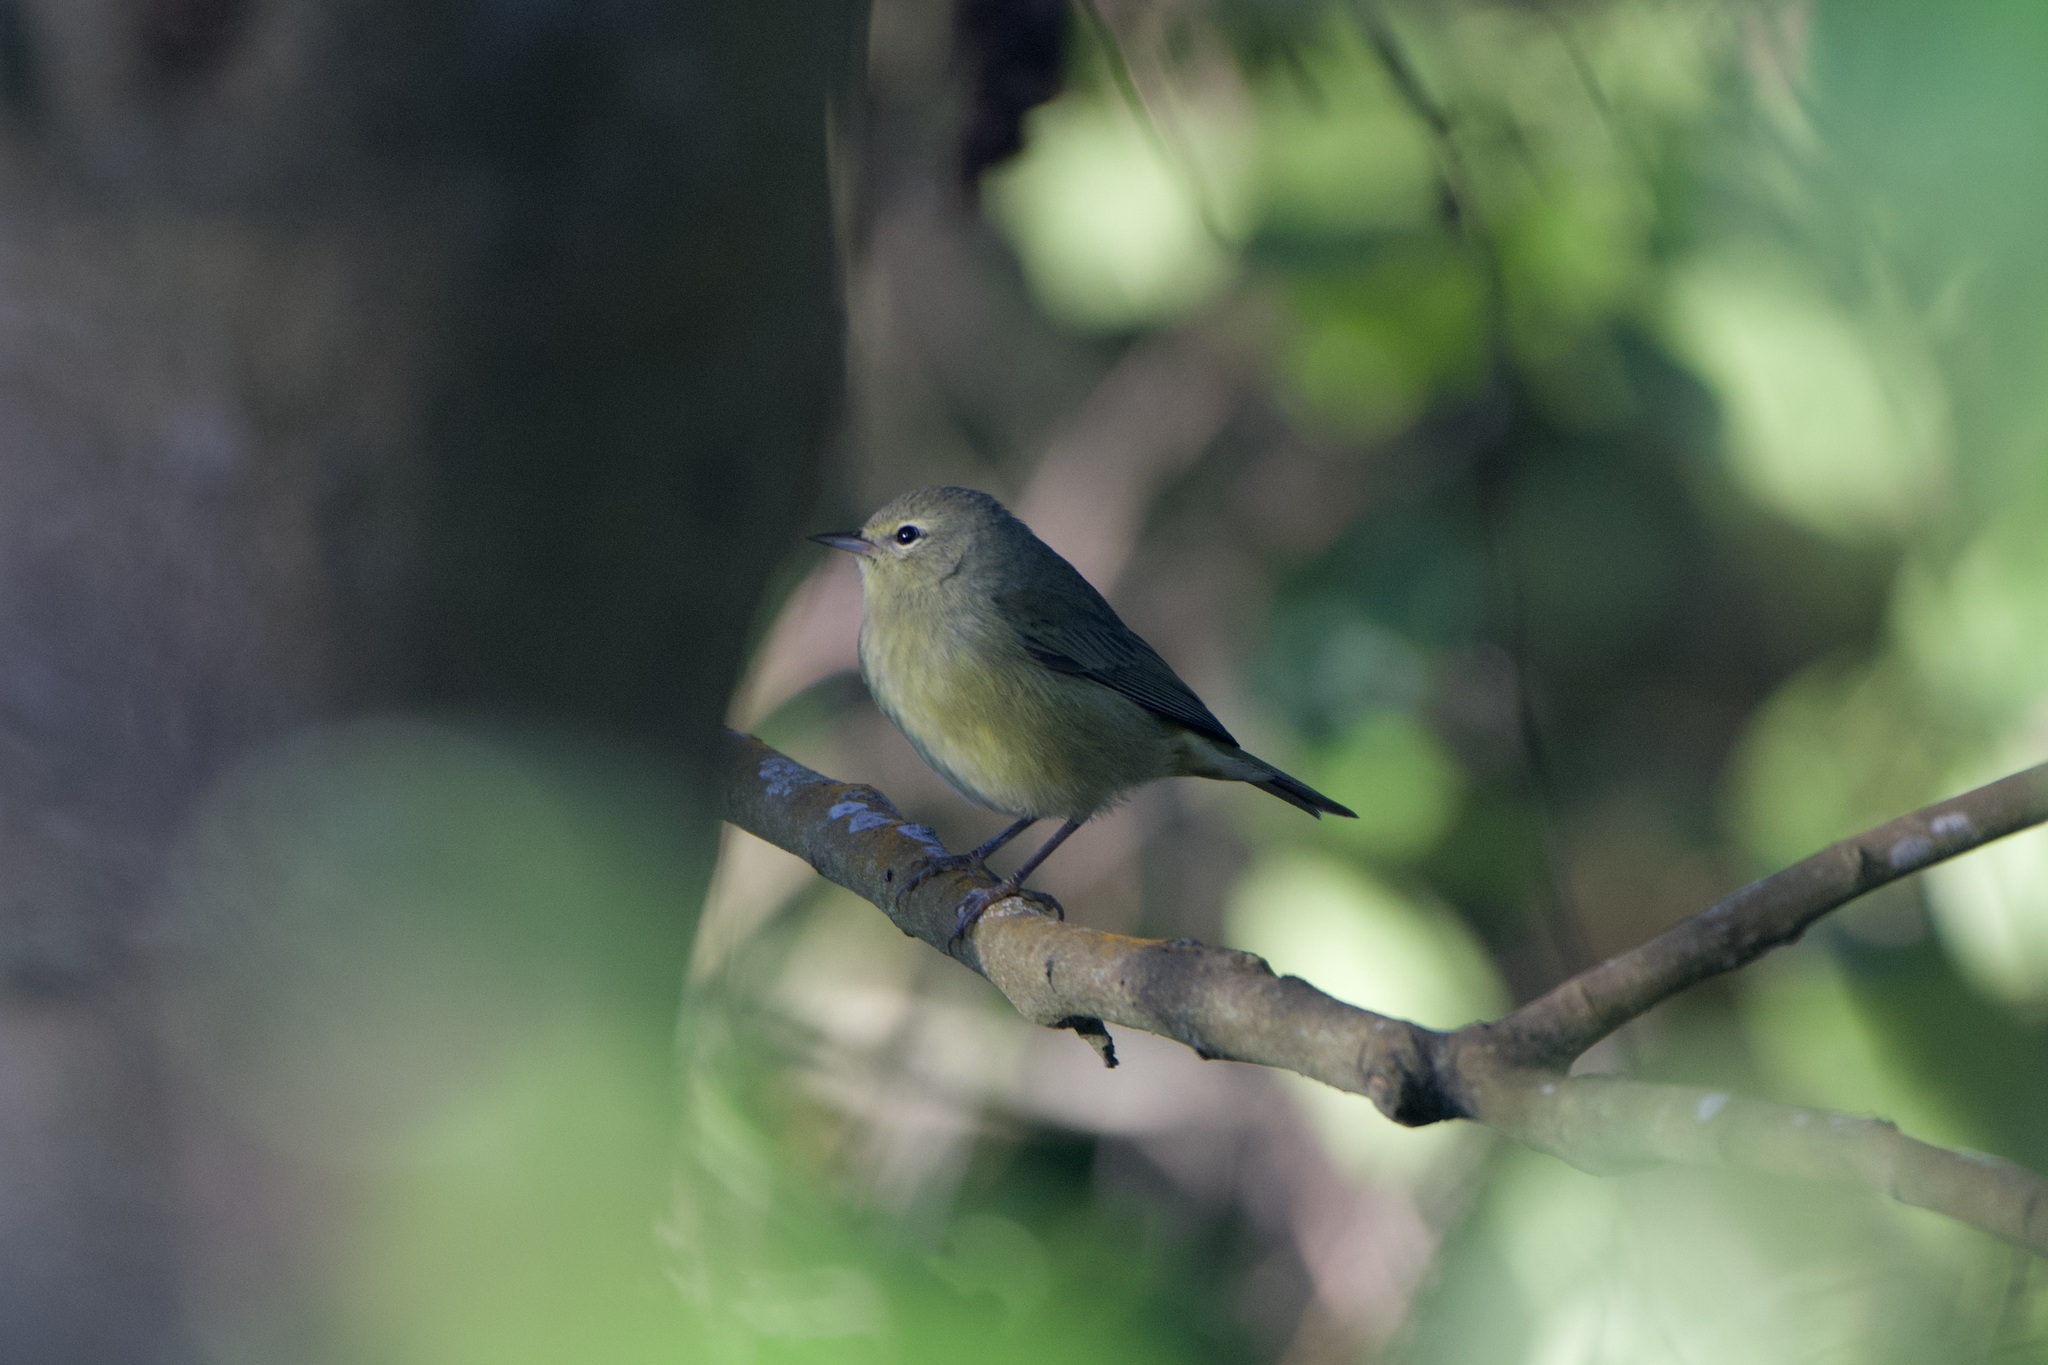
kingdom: Animalia
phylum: Chordata
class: Aves
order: Passeriformes
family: Parulidae
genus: Leiothlypis
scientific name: Leiothlypis celata
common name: Orange-crowned warbler
